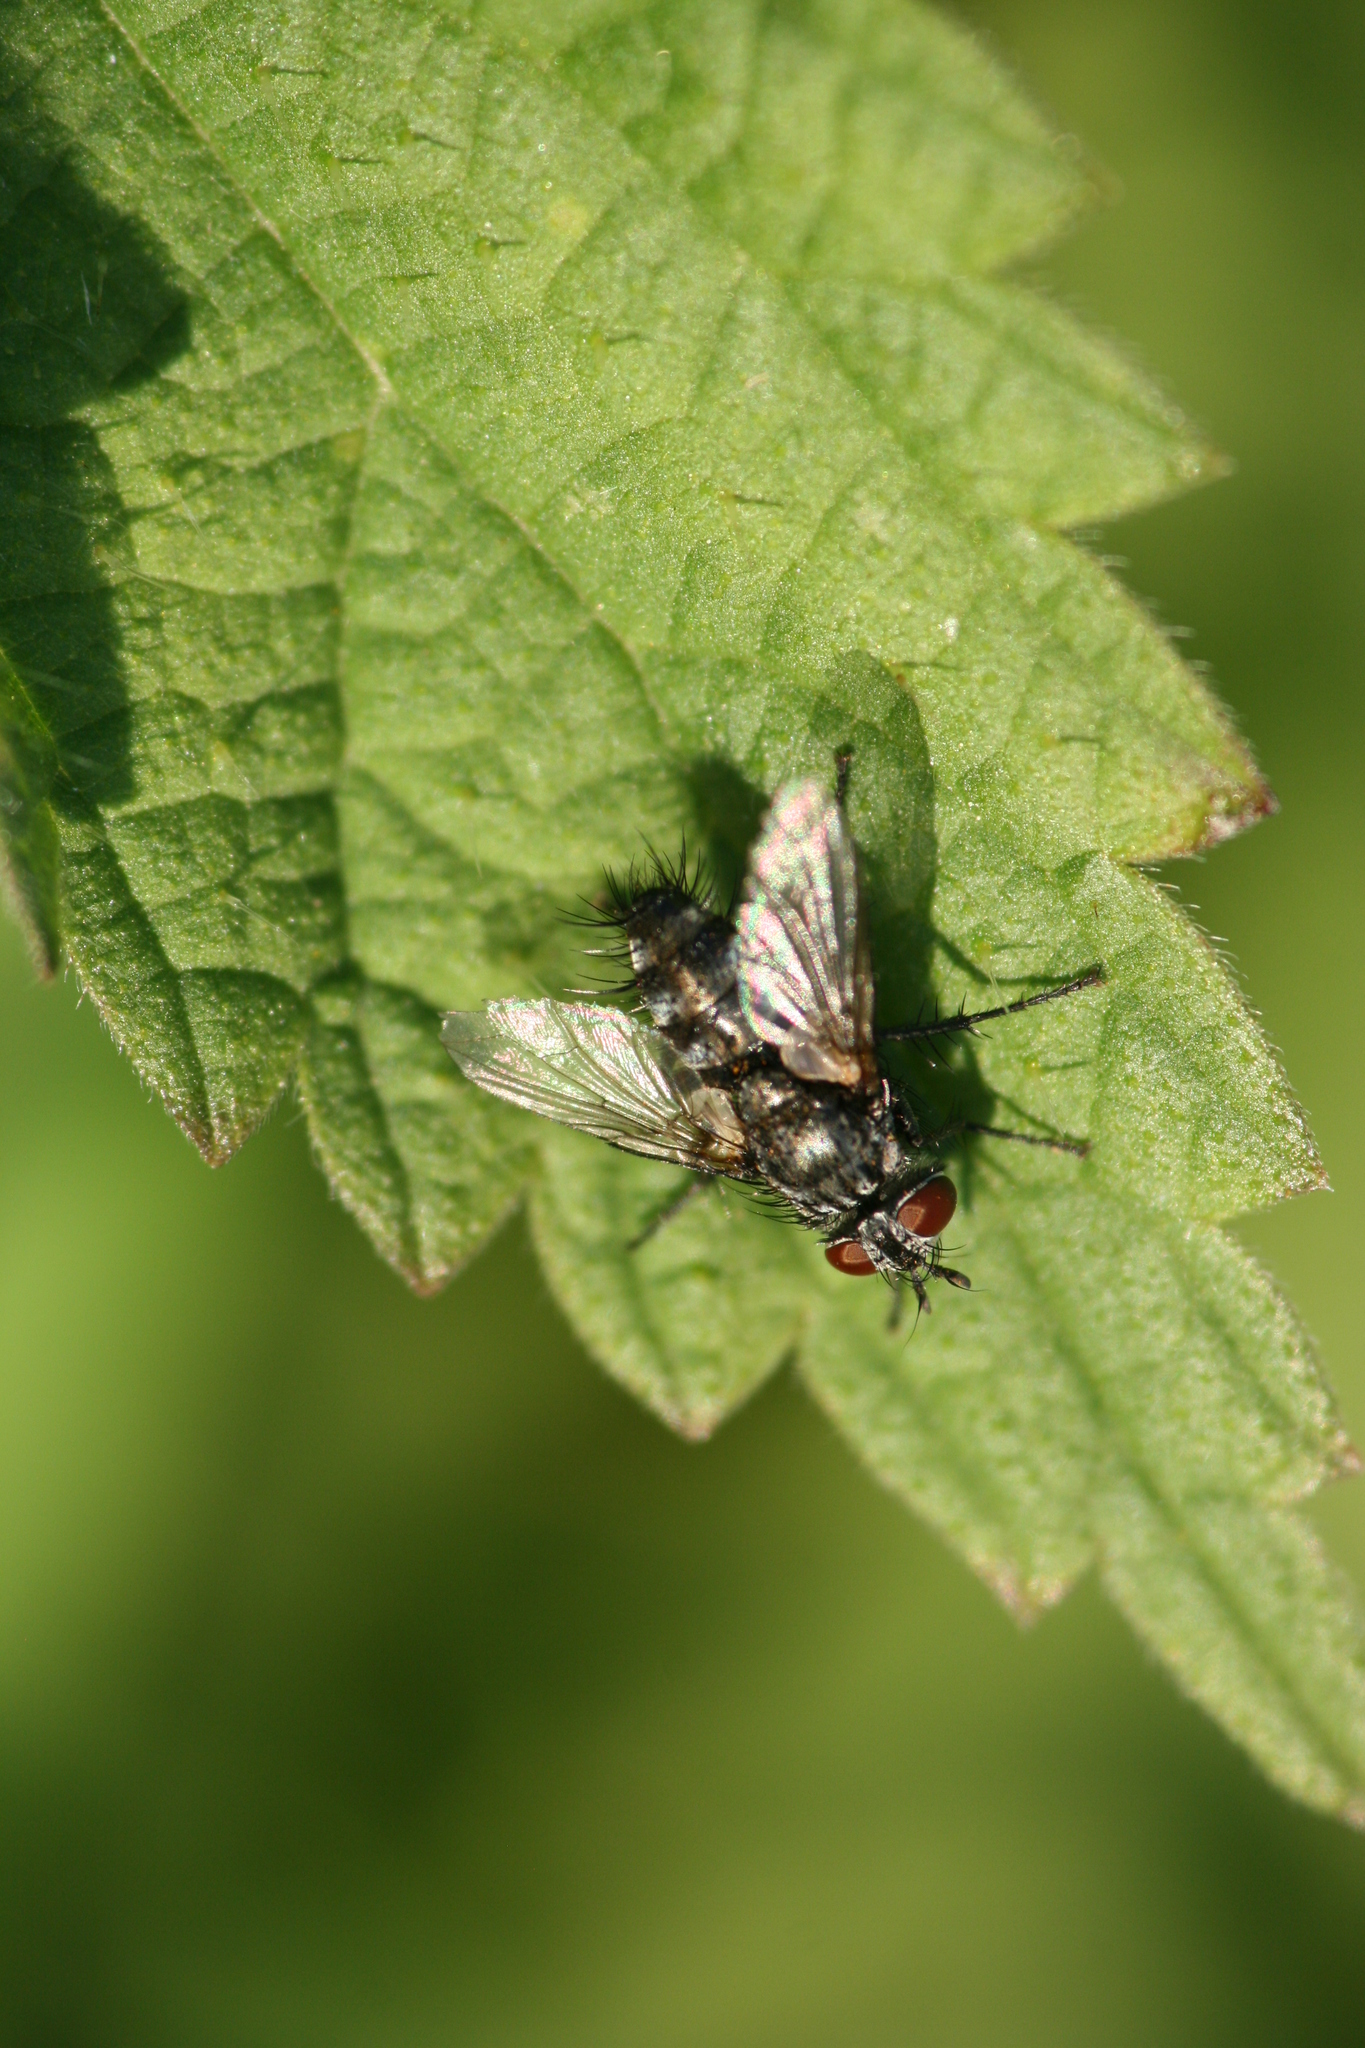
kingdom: Animalia
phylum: Arthropoda
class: Insecta
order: Diptera
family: Tachinidae
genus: Blondelia
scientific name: Blondelia nigripes
